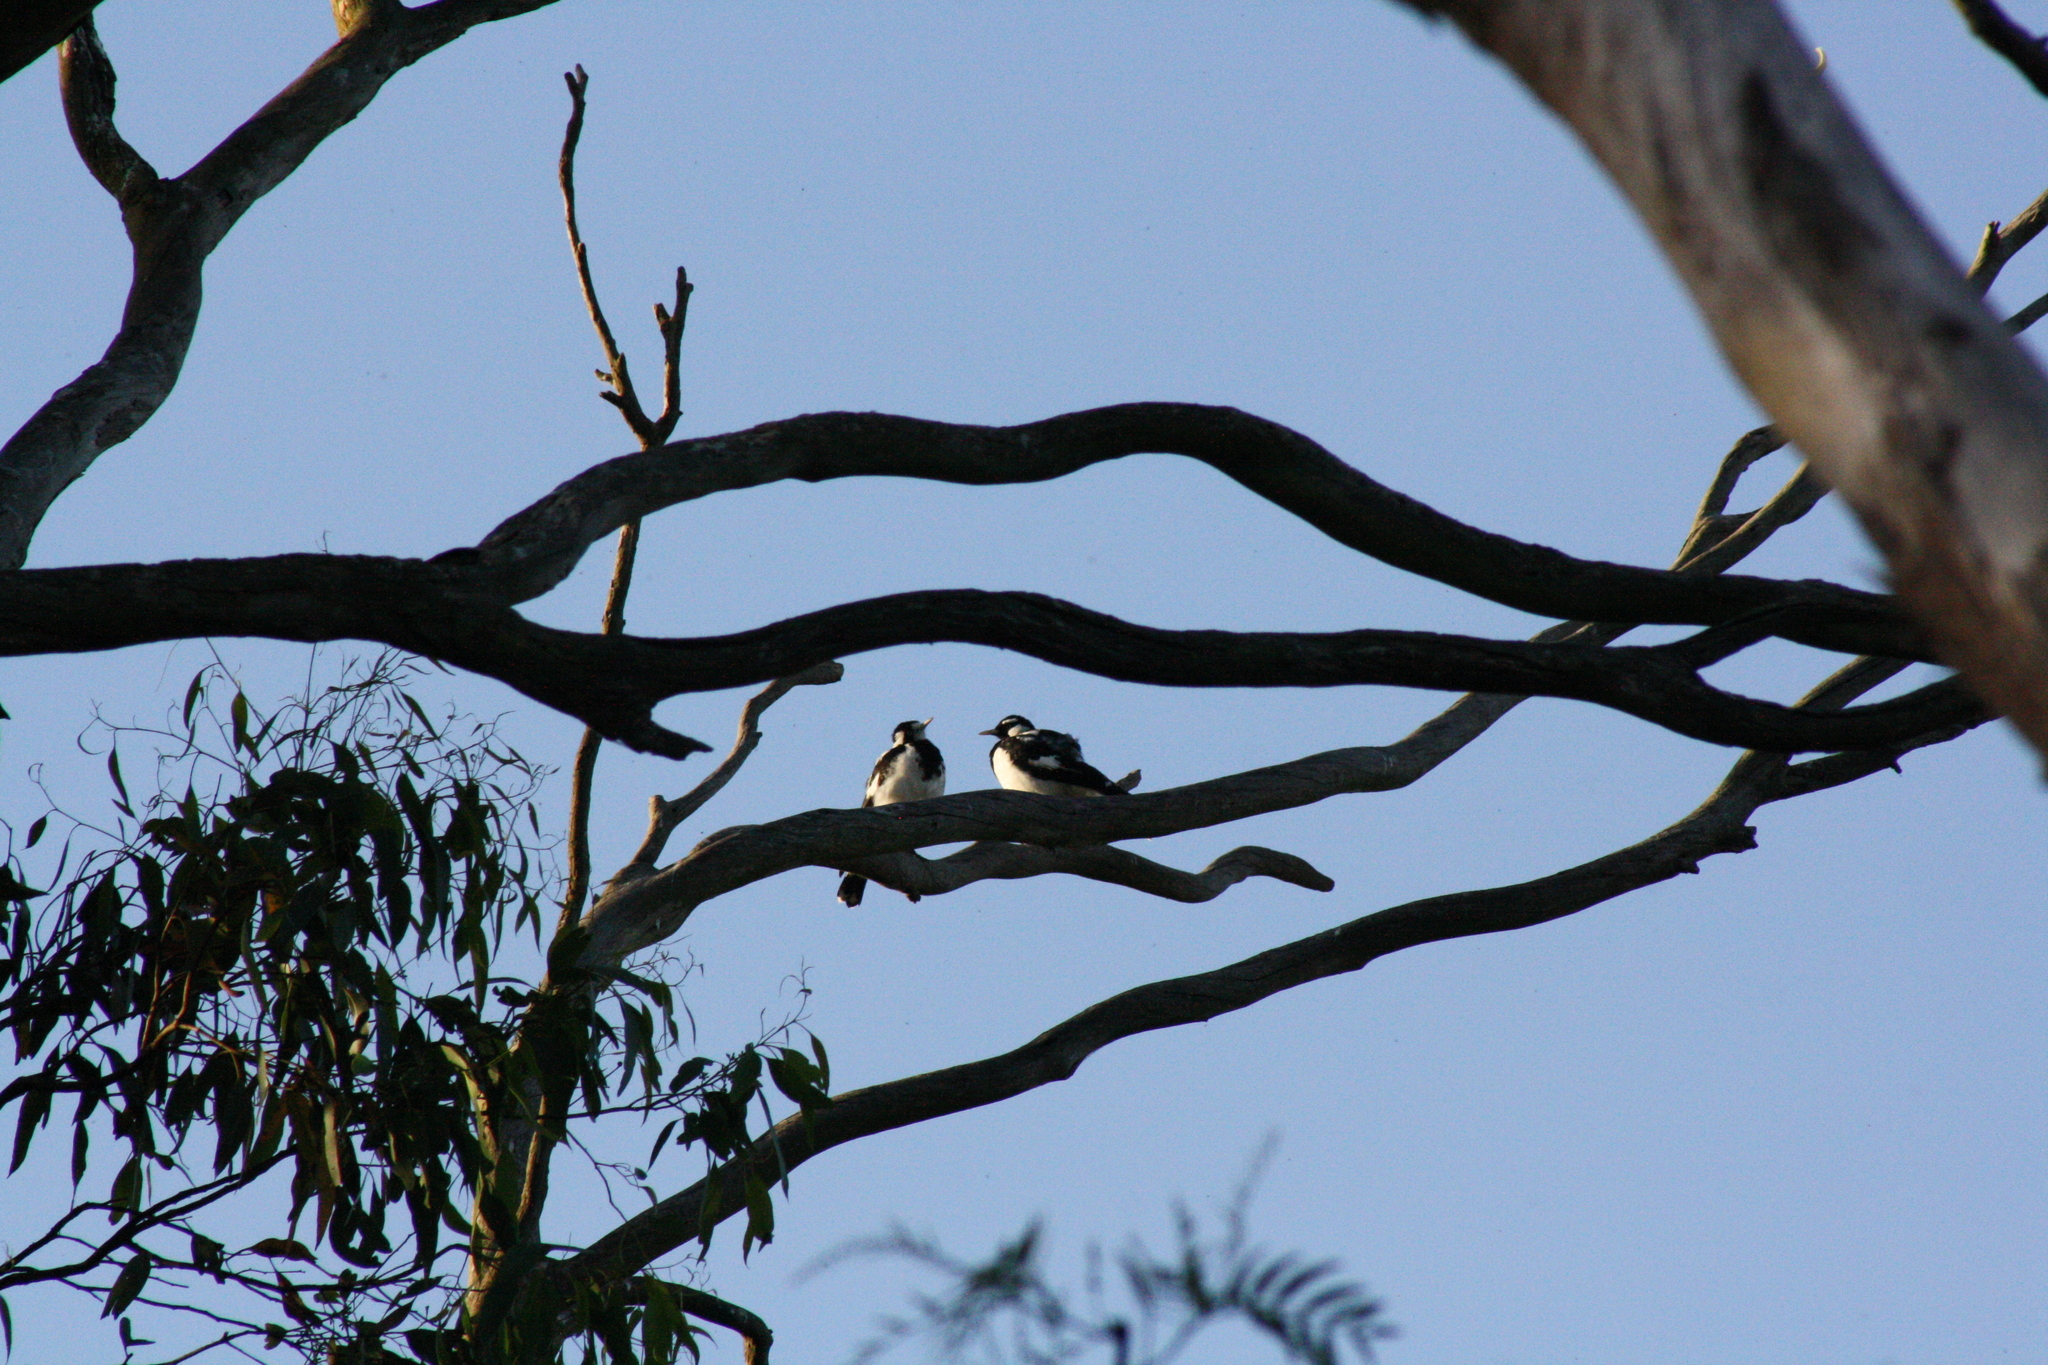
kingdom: Animalia
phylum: Chordata
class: Aves
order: Passeriformes
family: Monarchidae
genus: Grallina
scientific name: Grallina cyanoleuca
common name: Magpie-lark
